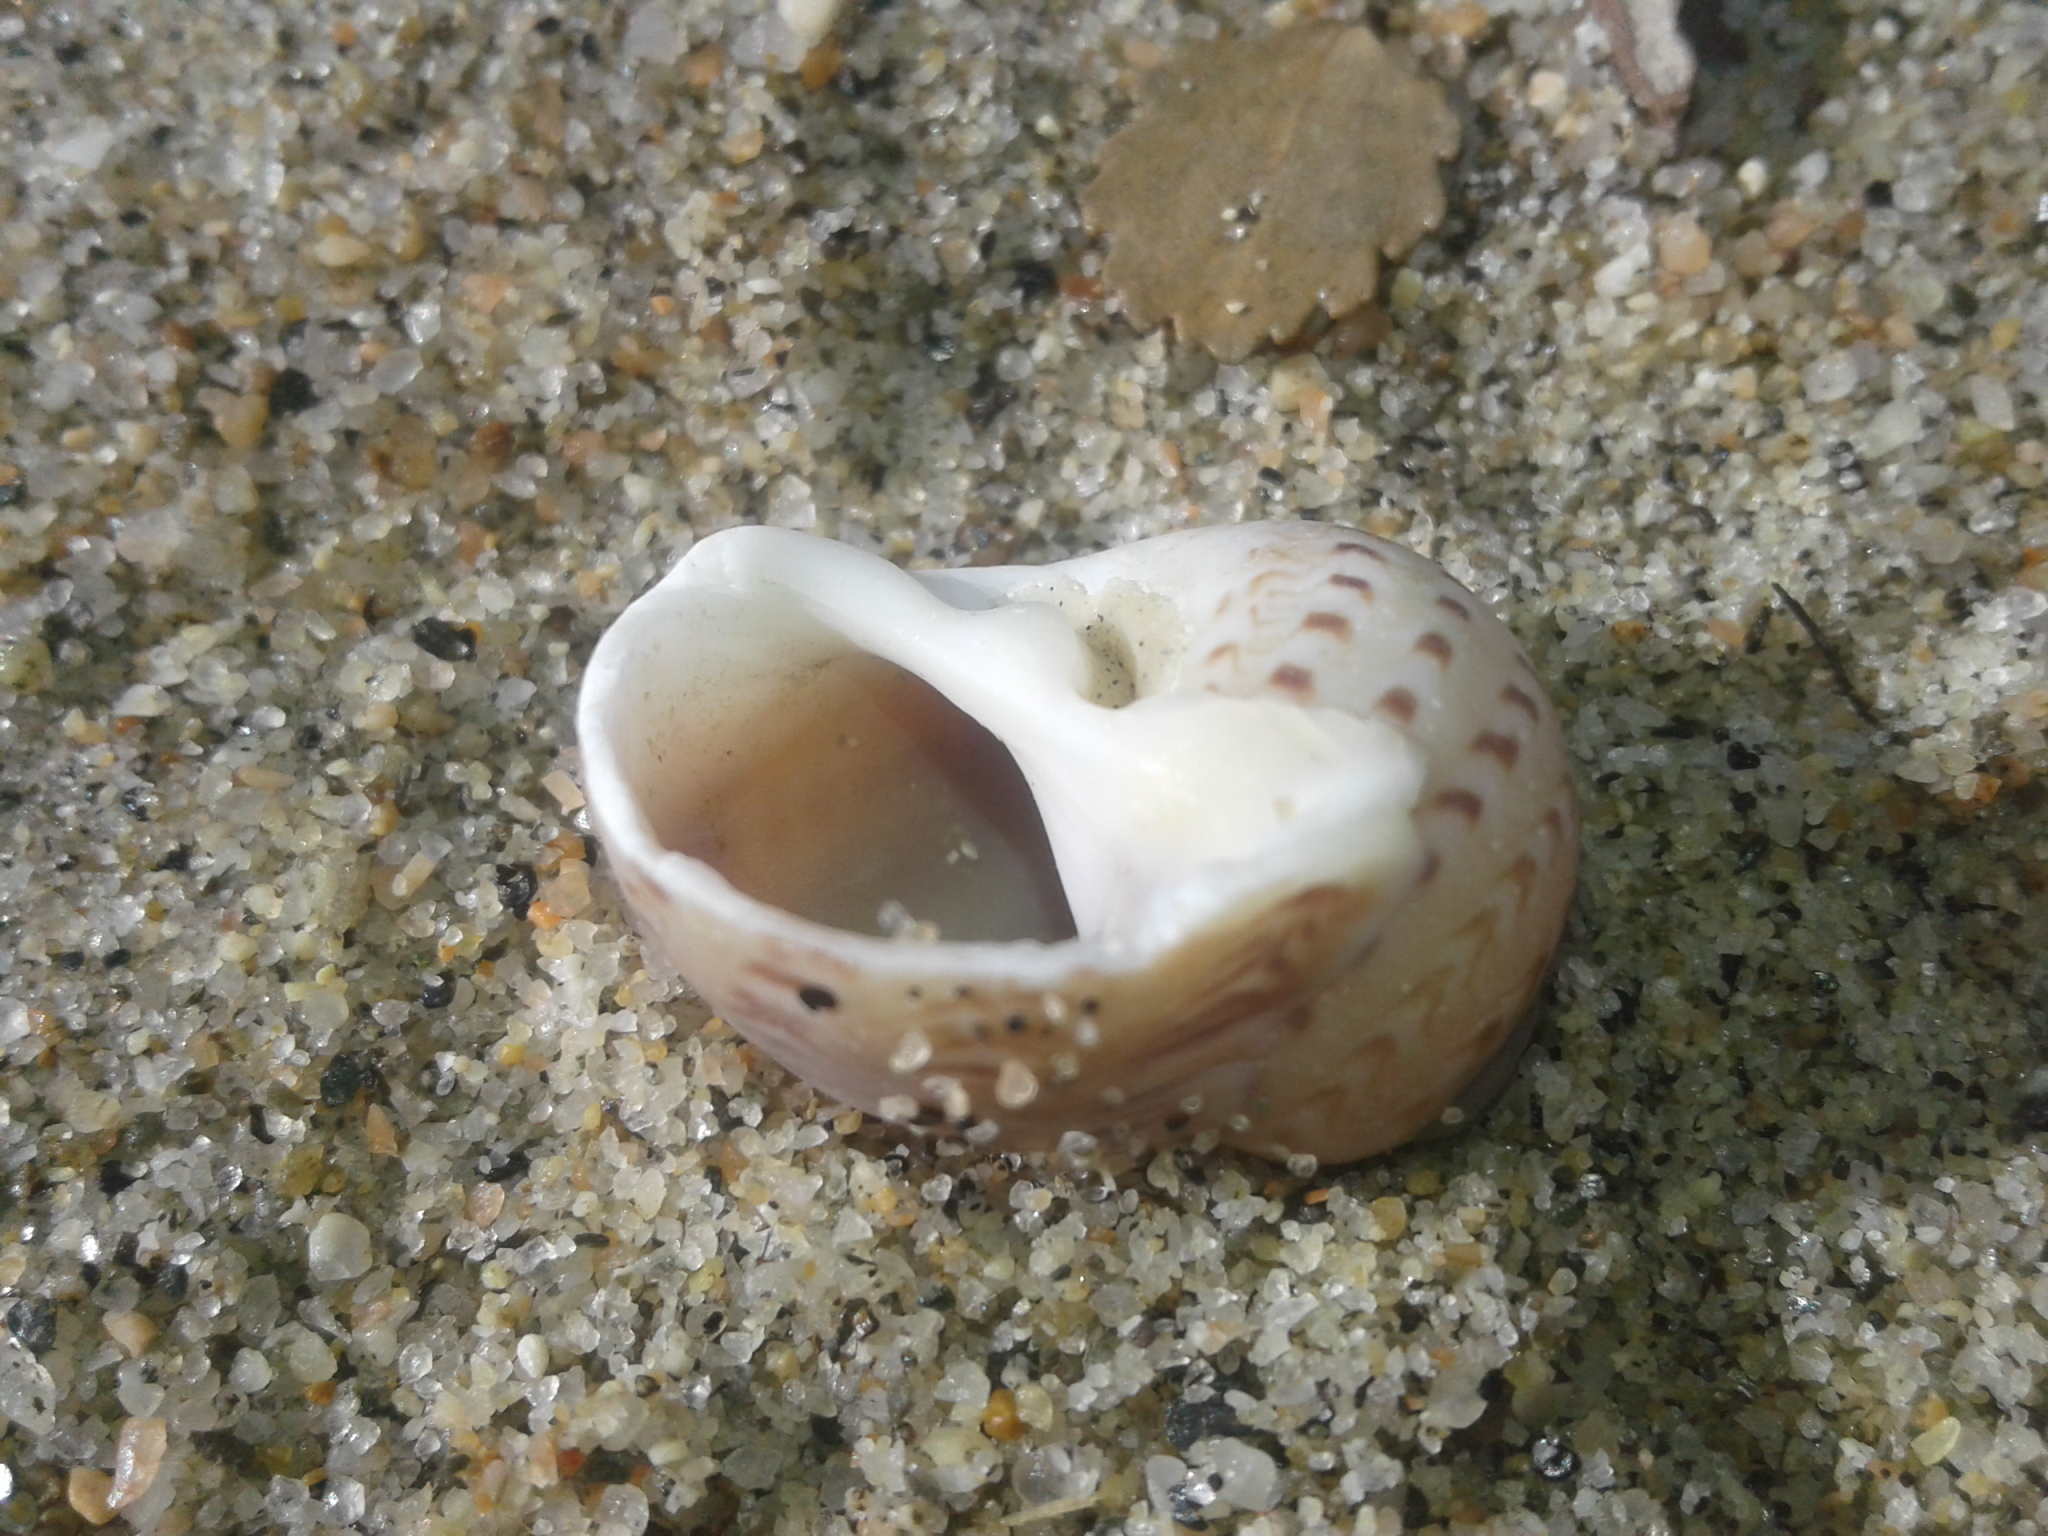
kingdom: Animalia
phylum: Mollusca
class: Gastropoda
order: Littorinimorpha
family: Naticidae
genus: Tanea
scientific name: Tanea zelandica
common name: New zealand moonsnail
